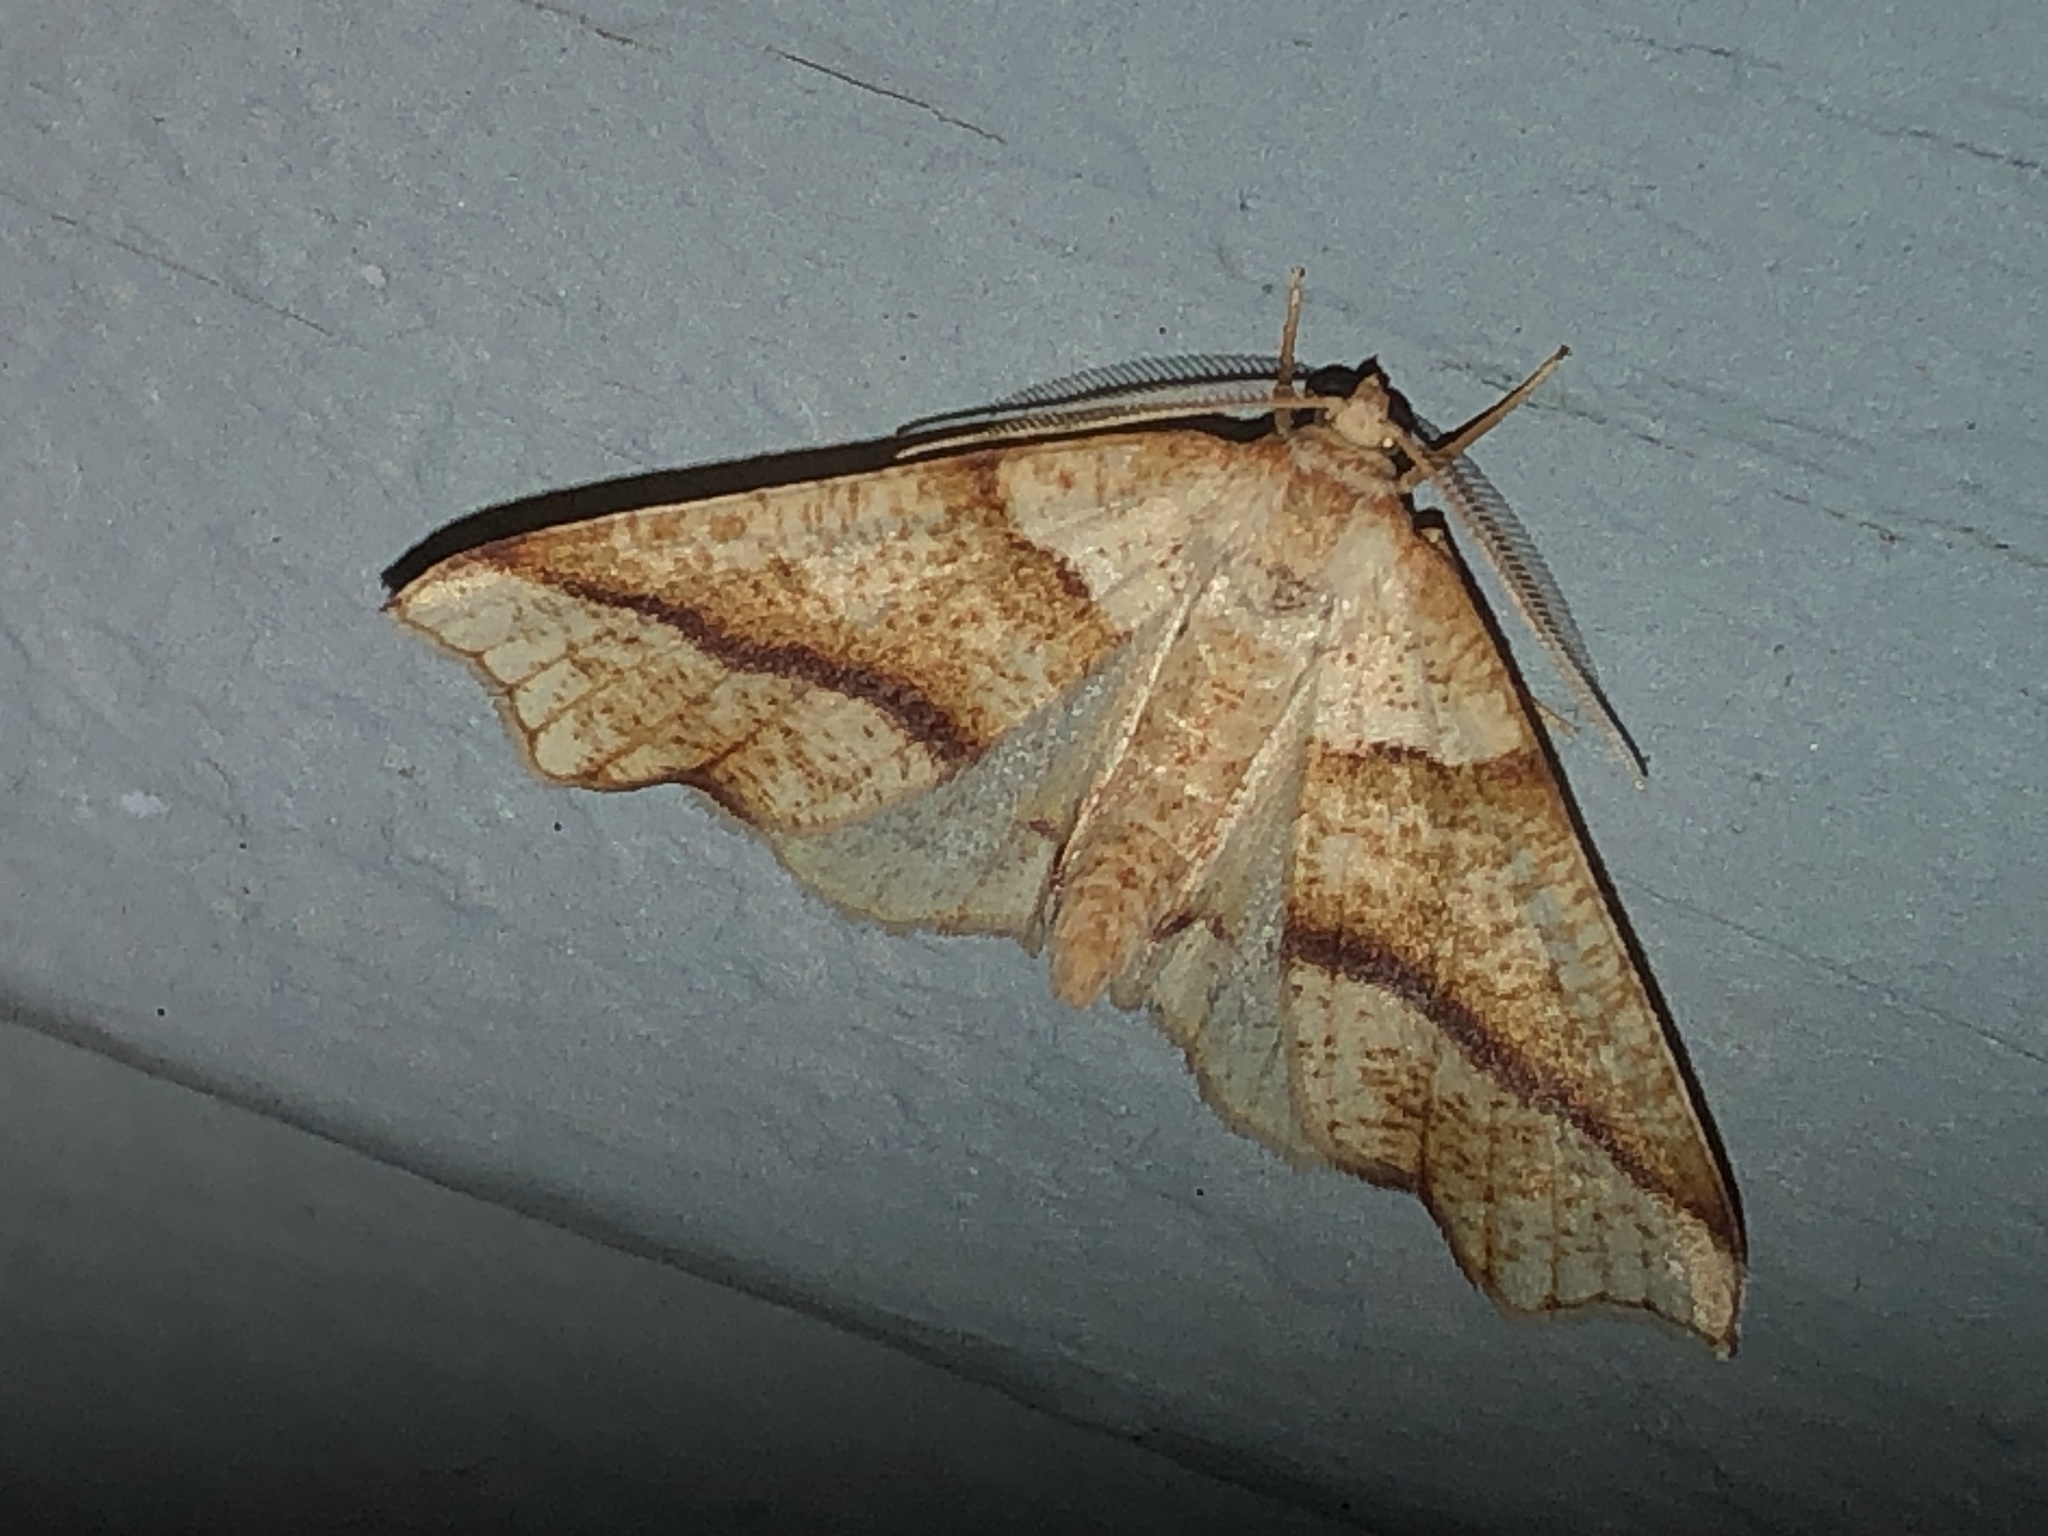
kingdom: Animalia
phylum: Arthropoda
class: Insecta
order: Lepidoptera
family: Geometridae
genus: Plagodis
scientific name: Plagodis alcoolaria
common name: Hollow-spotted plagodis
